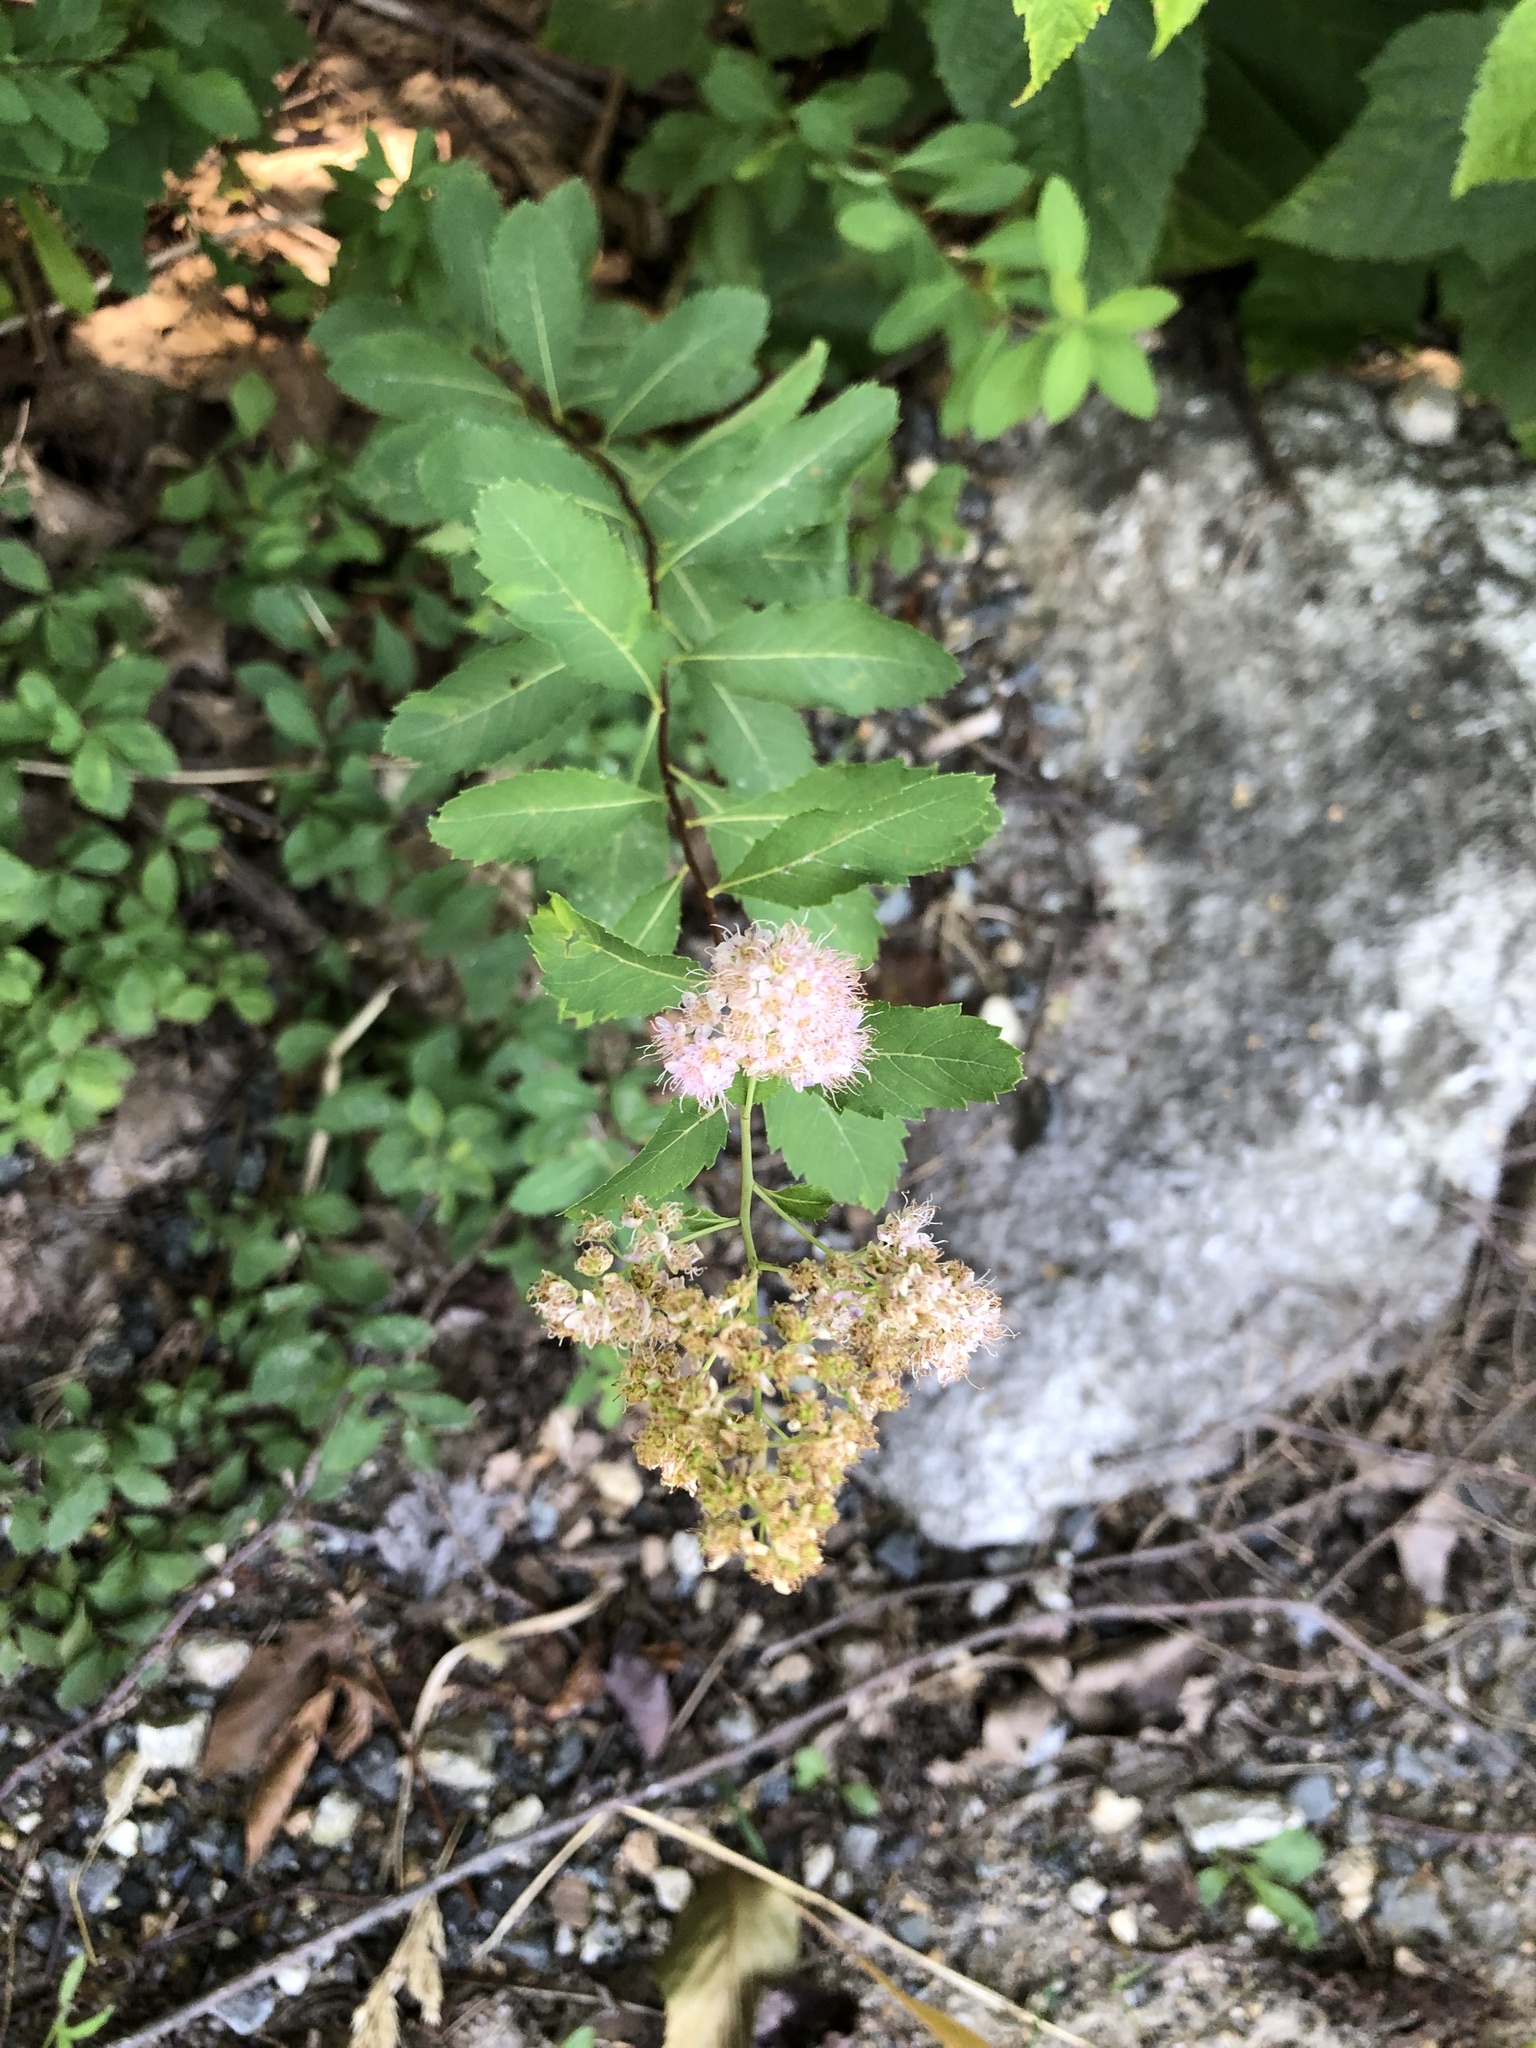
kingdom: Plantae
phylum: Tracheophyta
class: Magnoliopsida
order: Rosales
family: Rosaceae
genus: Spiraea
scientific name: Spiraea alba
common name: Pale bridewort
